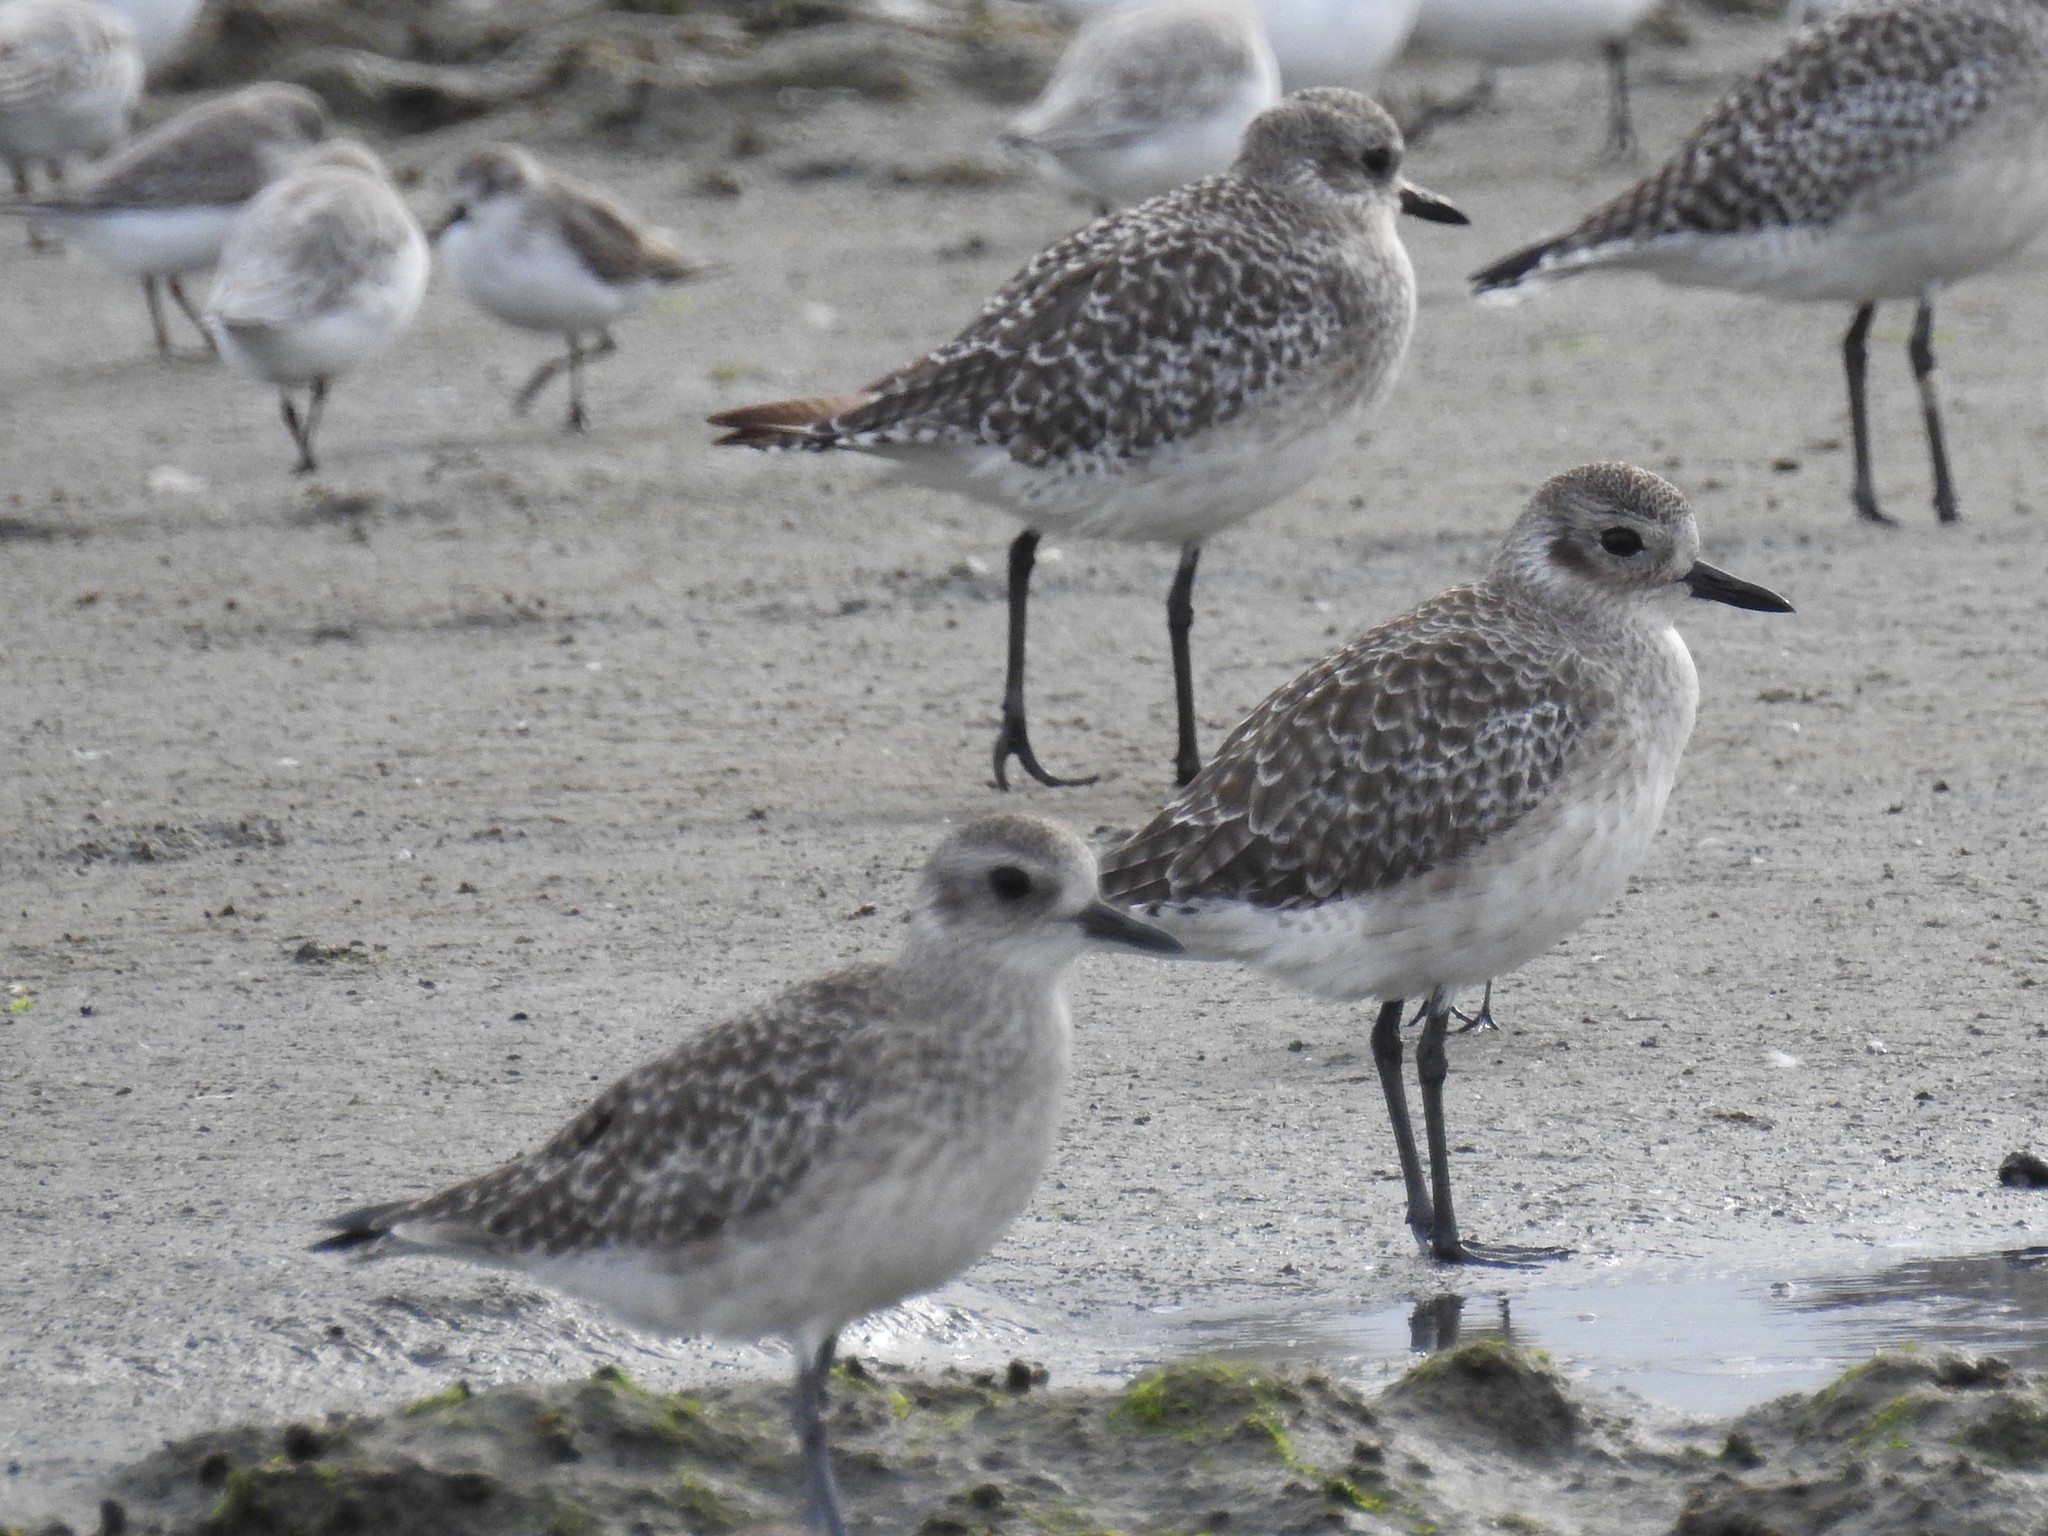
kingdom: Animalia
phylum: Chordata
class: Aves
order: Charadriiformes
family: Charadriidae
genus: Pluvialis
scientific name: Pluvialis squatarola
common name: Grey plover
